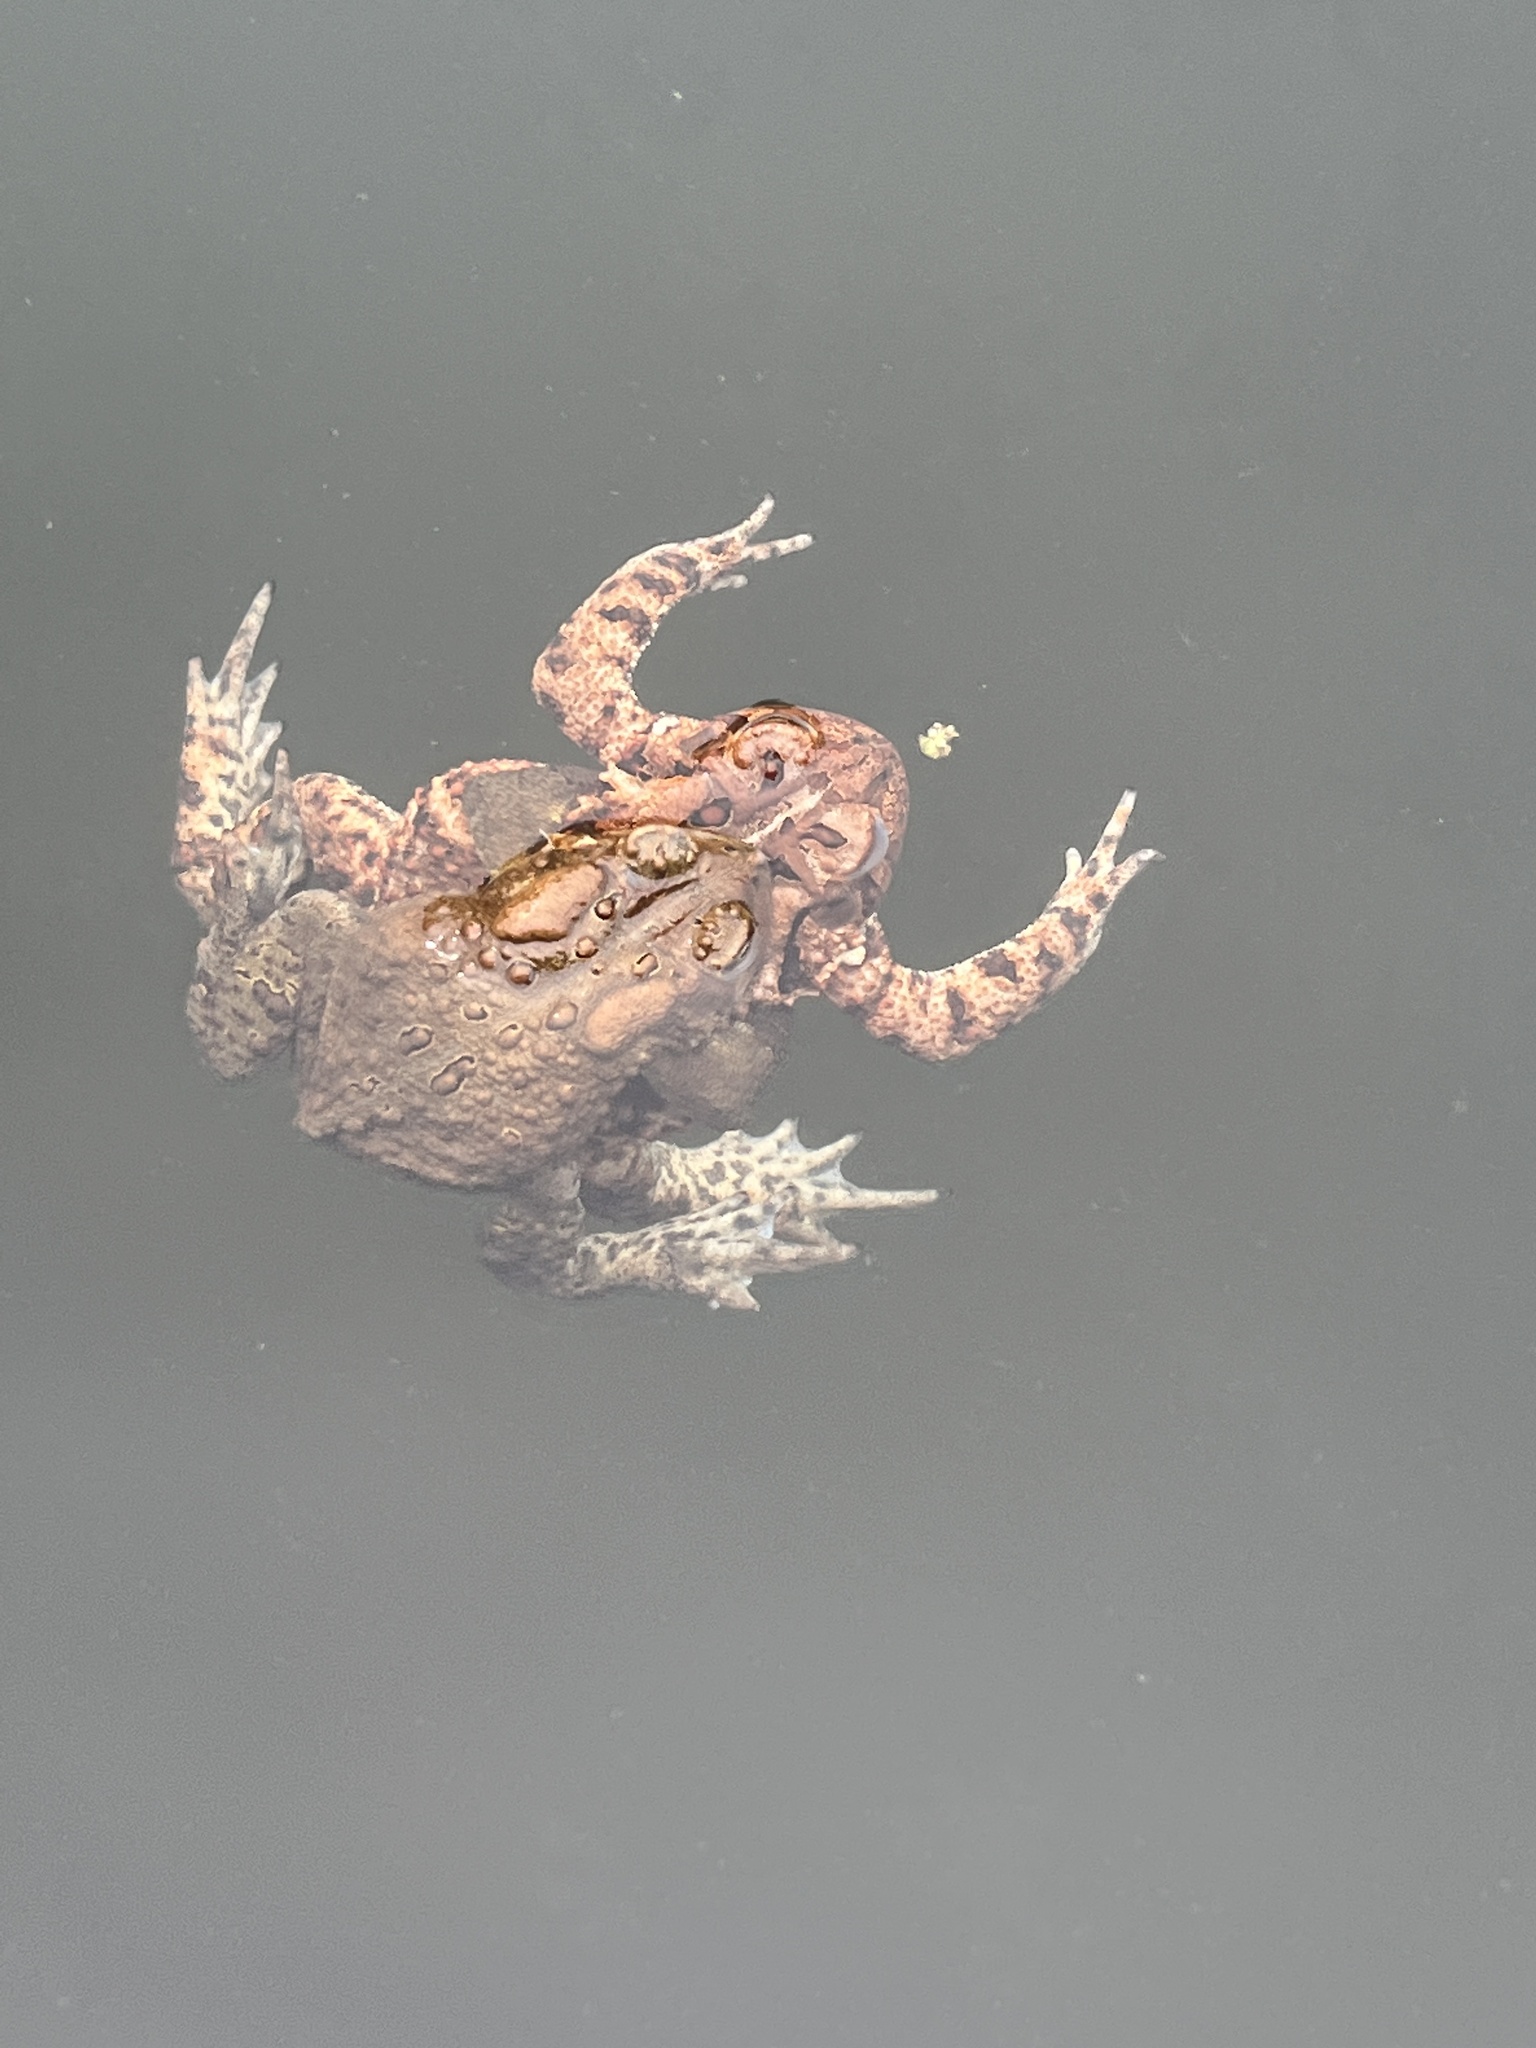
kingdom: Animalia
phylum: Chordata
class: Amphibia
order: Anura
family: Bufonidae
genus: Anaxyrus
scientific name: Anaxyrus americanus
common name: American toad
